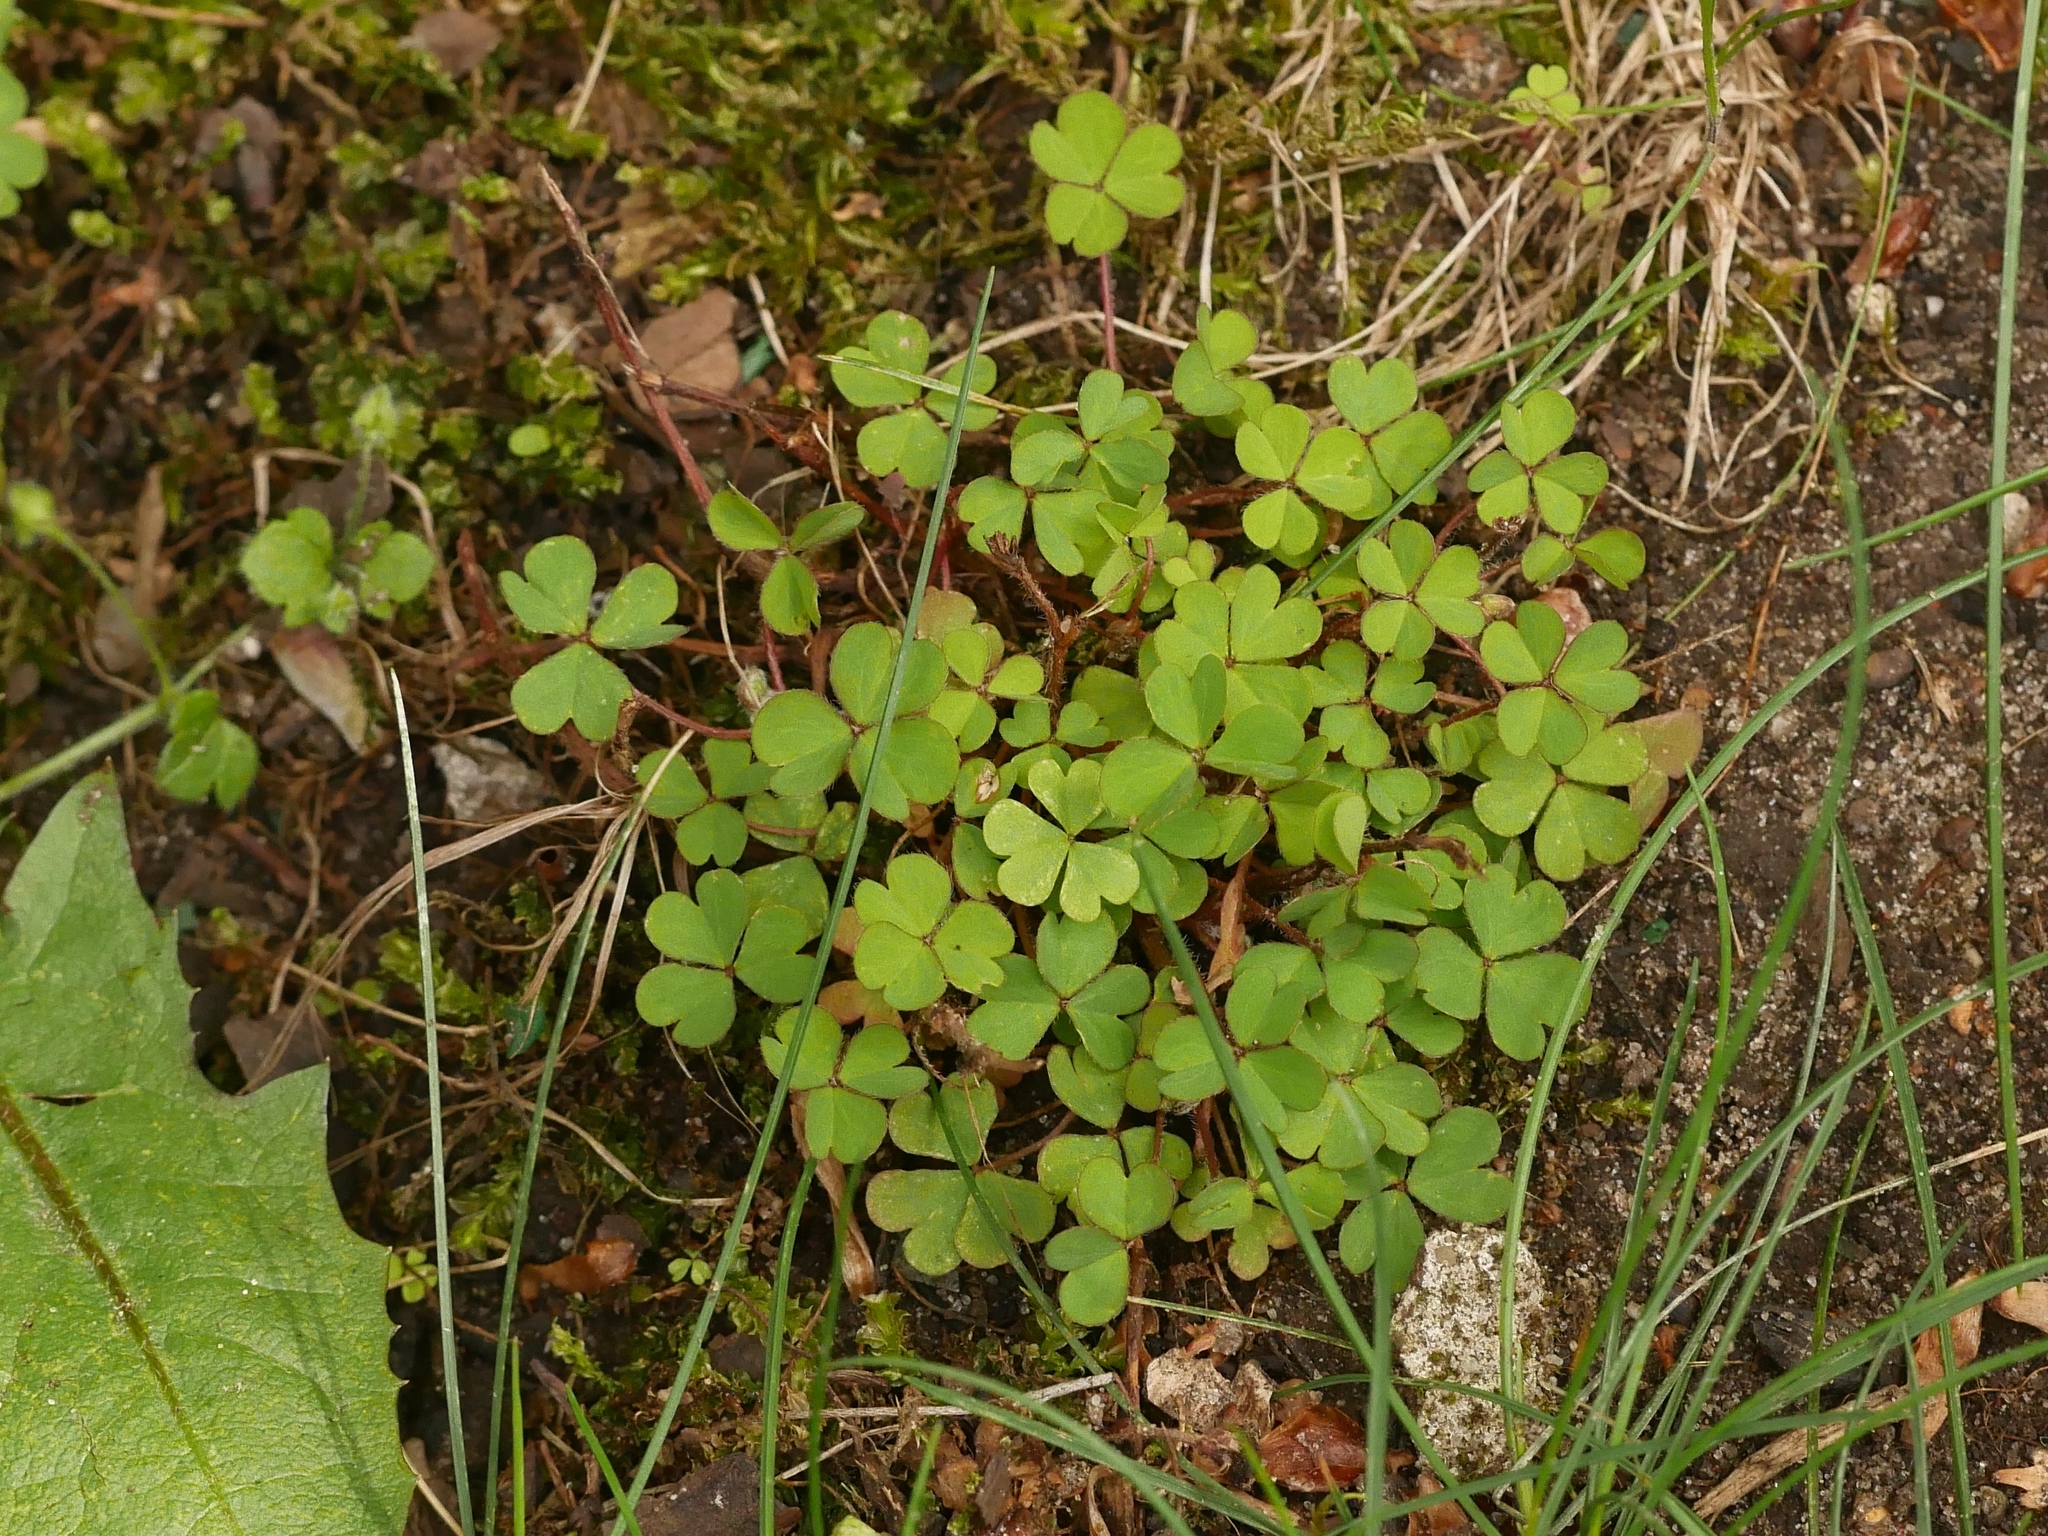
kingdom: Plantae
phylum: Tracheophyta
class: Magnoliopsida
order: Oxalidales
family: Oxalidaceae
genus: Oxalis
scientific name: Oxalis corniculata
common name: Procumbent yellow-sorrel
